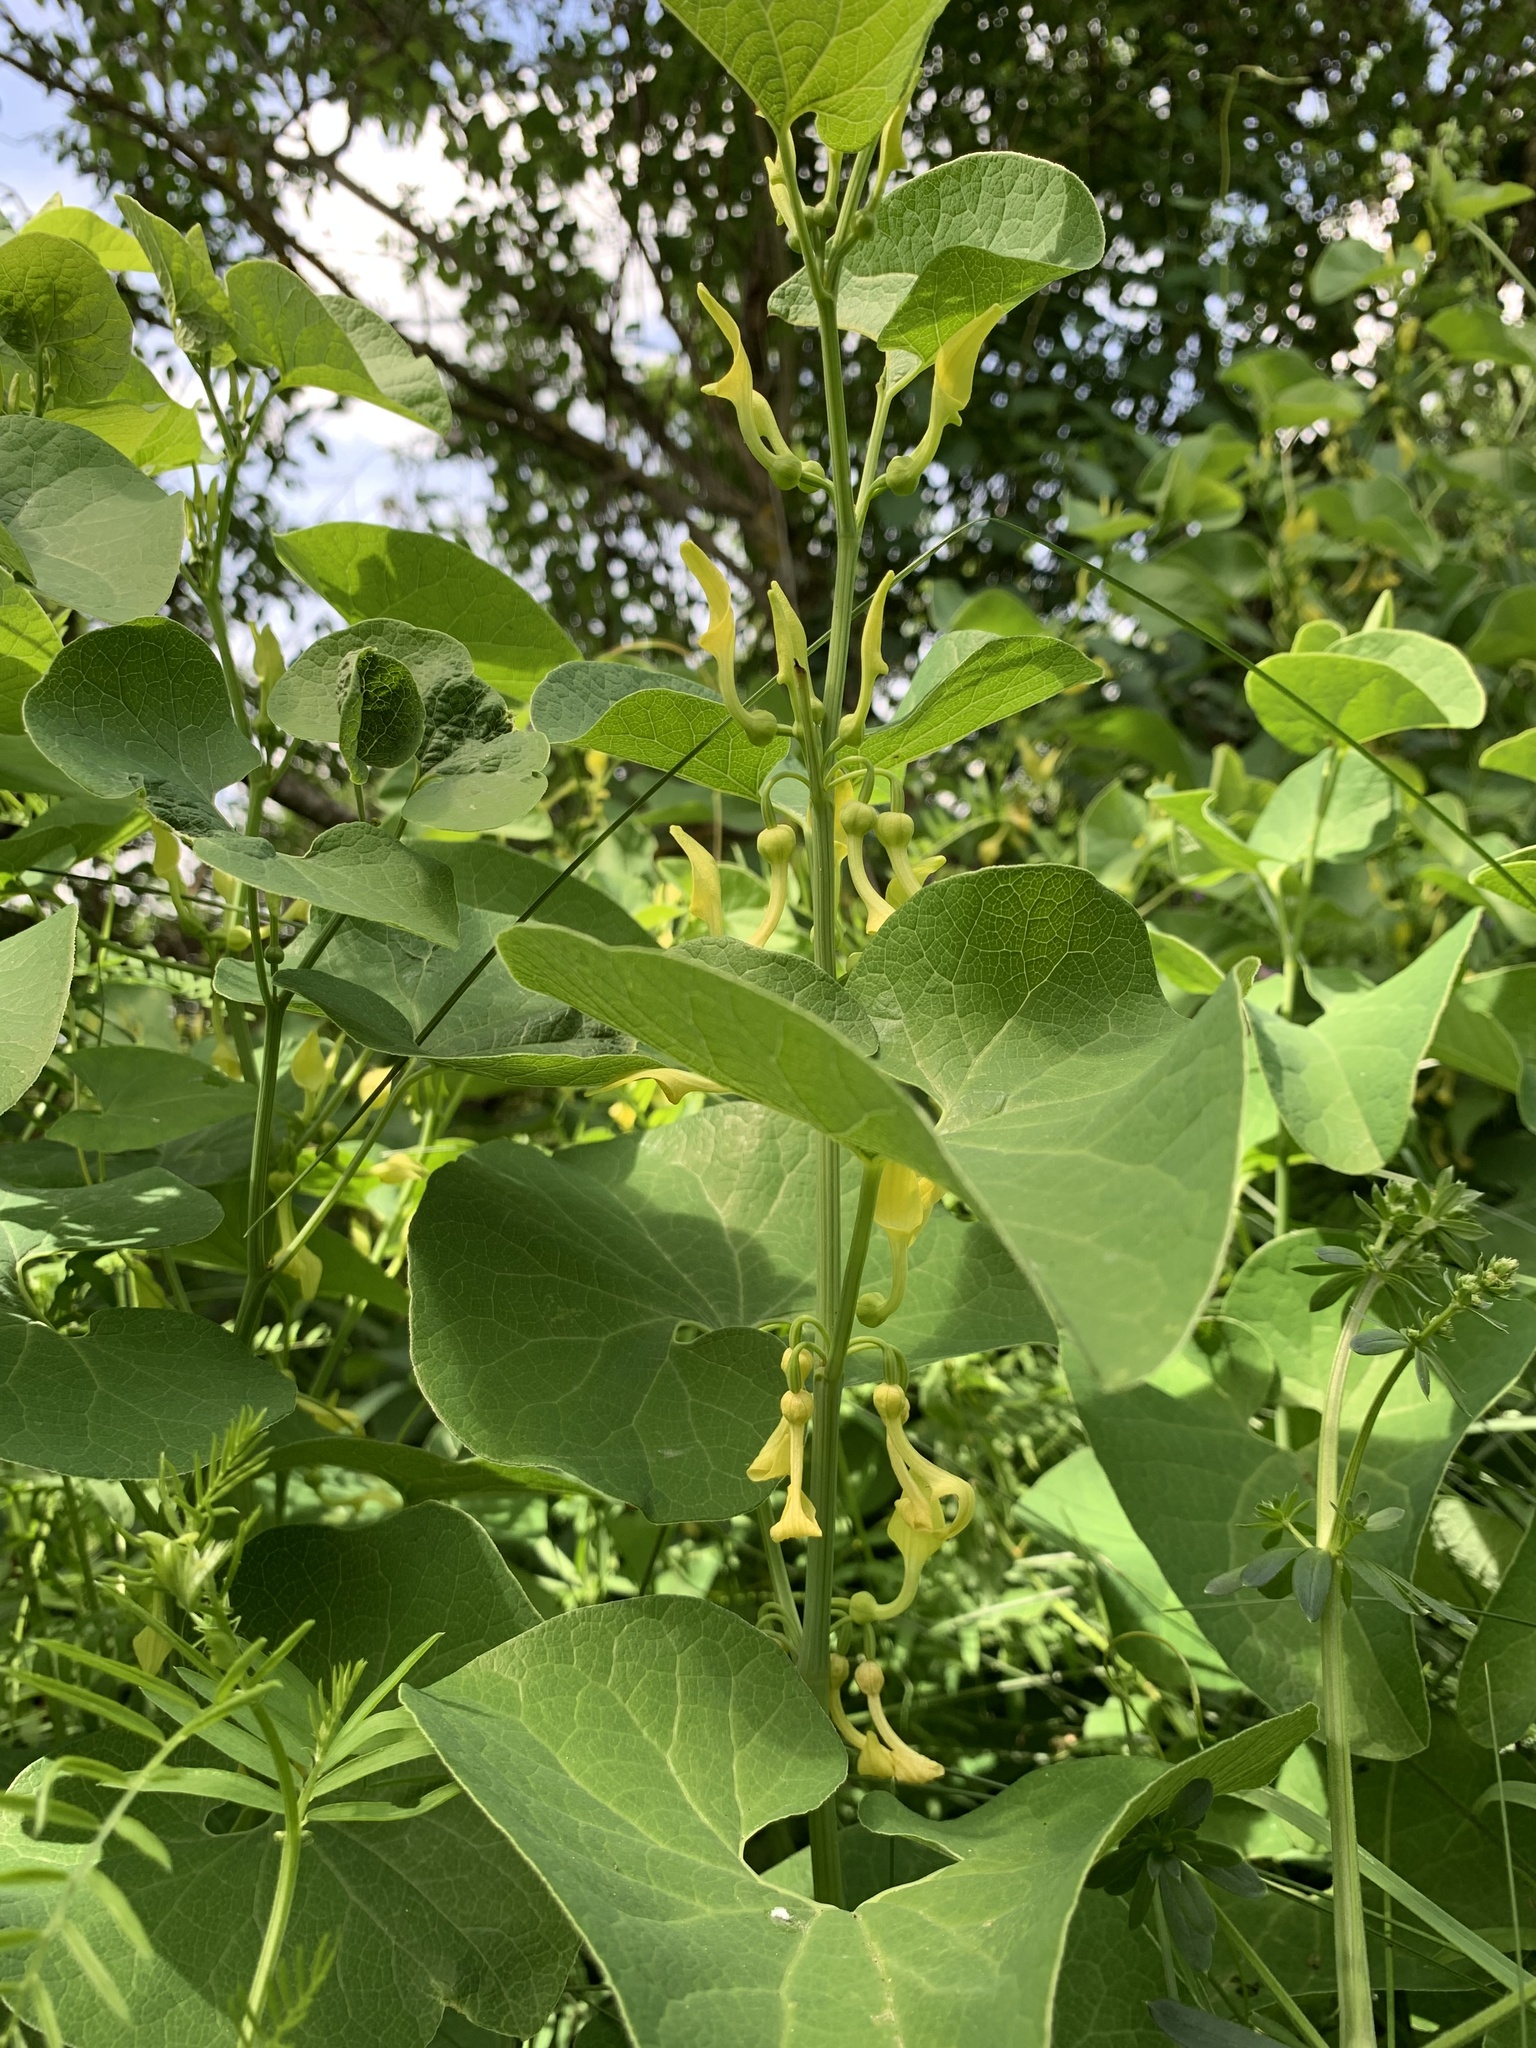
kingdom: Plantae
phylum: Tracheophyta
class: Magnoliopsida
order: Piperales
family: Aristolochiaceae
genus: Aristolochia
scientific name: Aristolochia clematitis
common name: Birthwort
